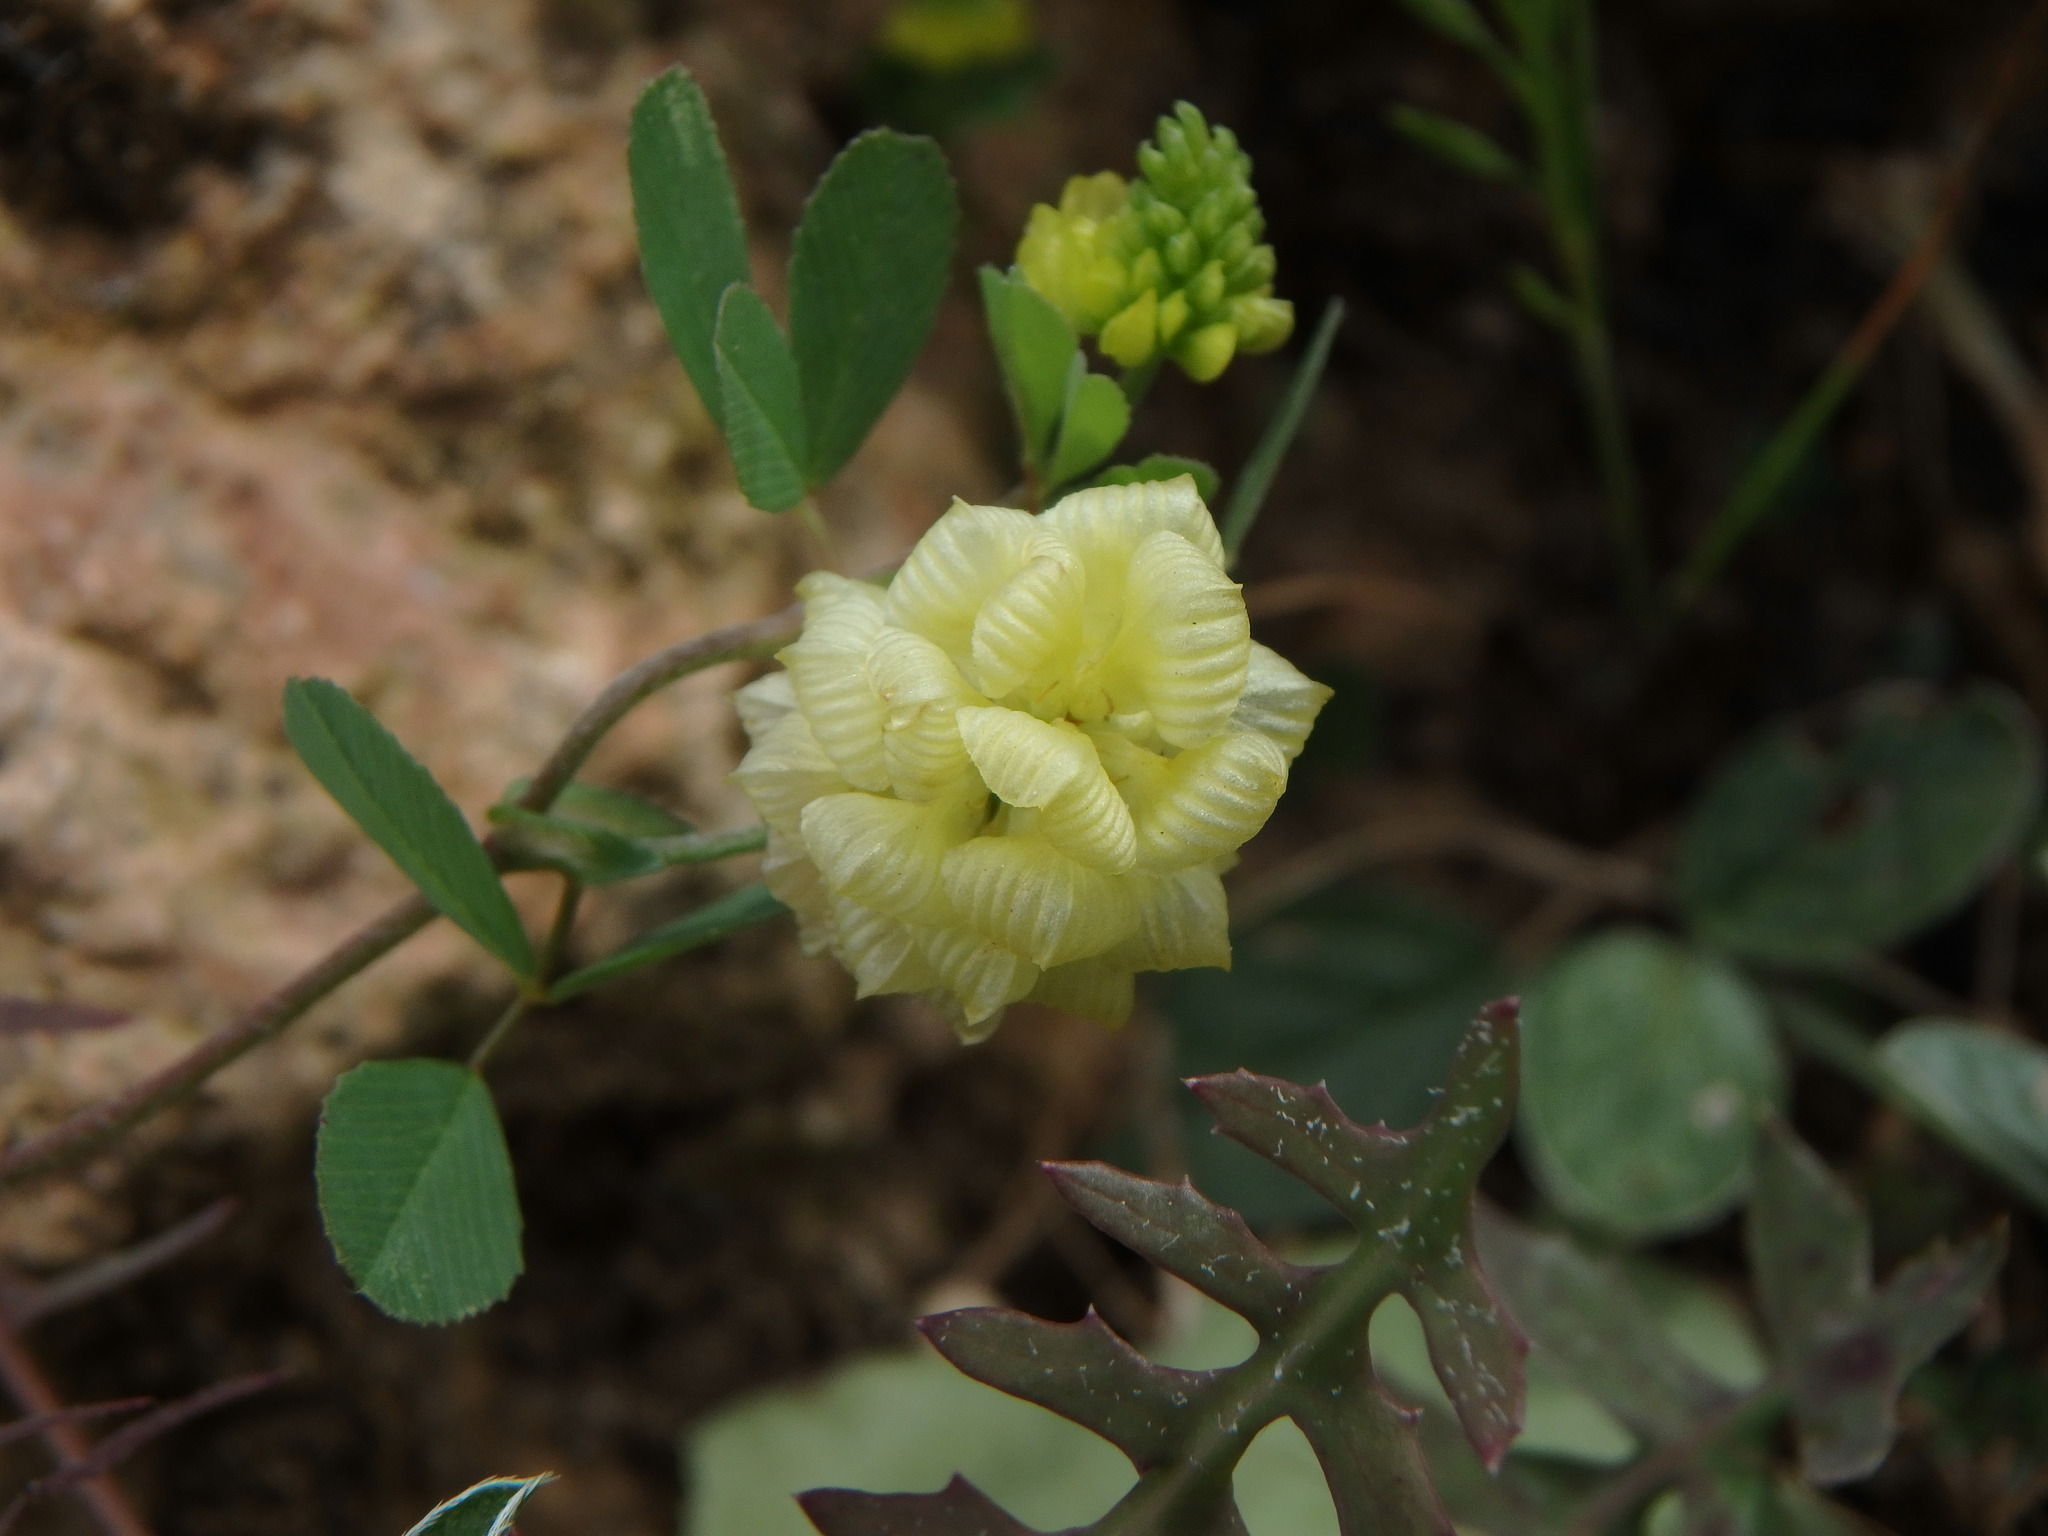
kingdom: Plantae
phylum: Tracheophyta
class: Magnoliopsida
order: Fabales
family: Fabaceae
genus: Trifolium
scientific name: Trifolium campestre
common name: Field clover
